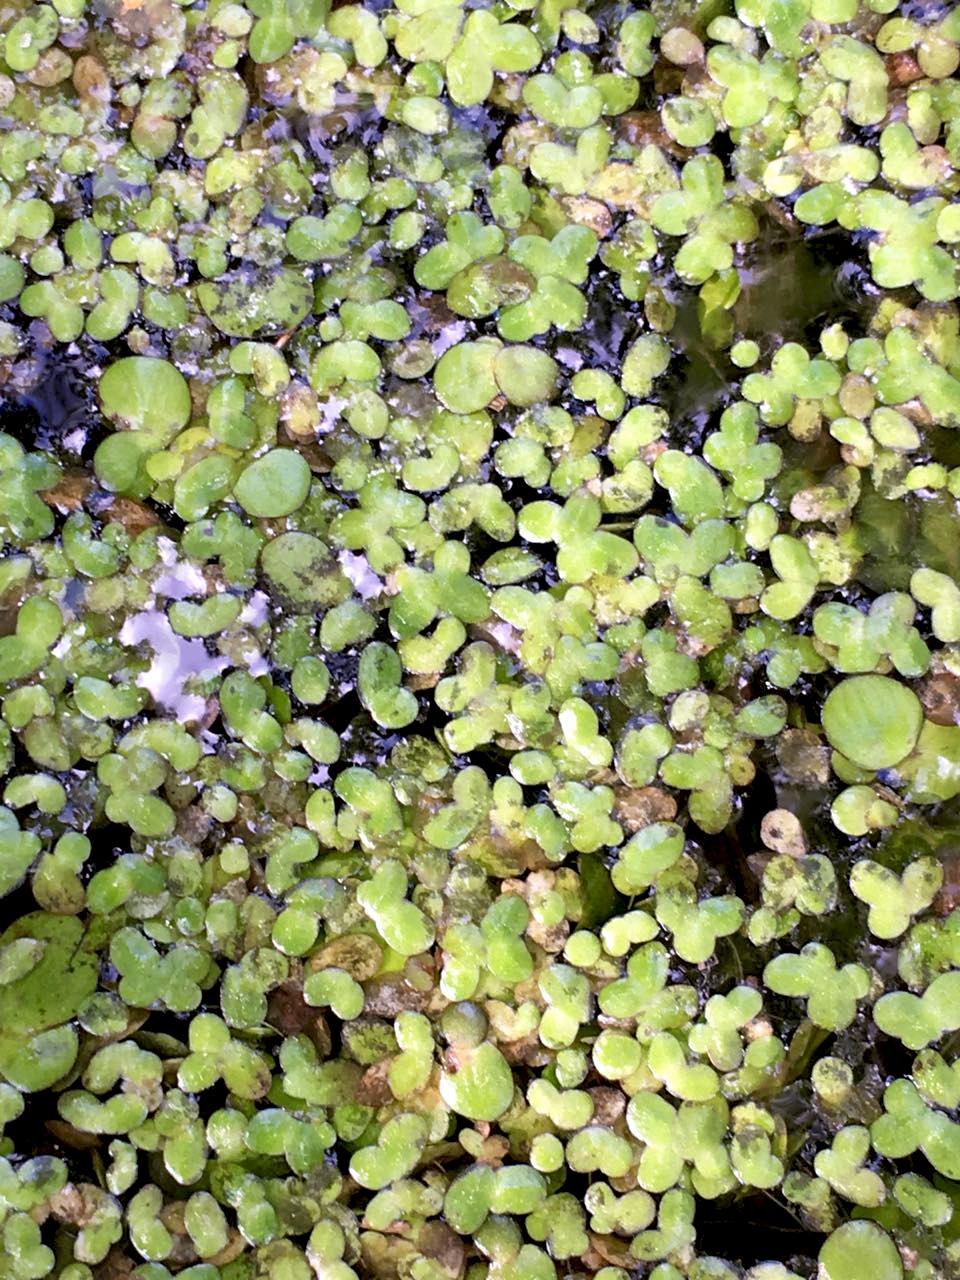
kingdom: Plantae
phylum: Tracheophyta
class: Liliopsida
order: Alismatales
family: Araceae
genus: Lemna
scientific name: Lemna turionifera
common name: Perennial duckweed
